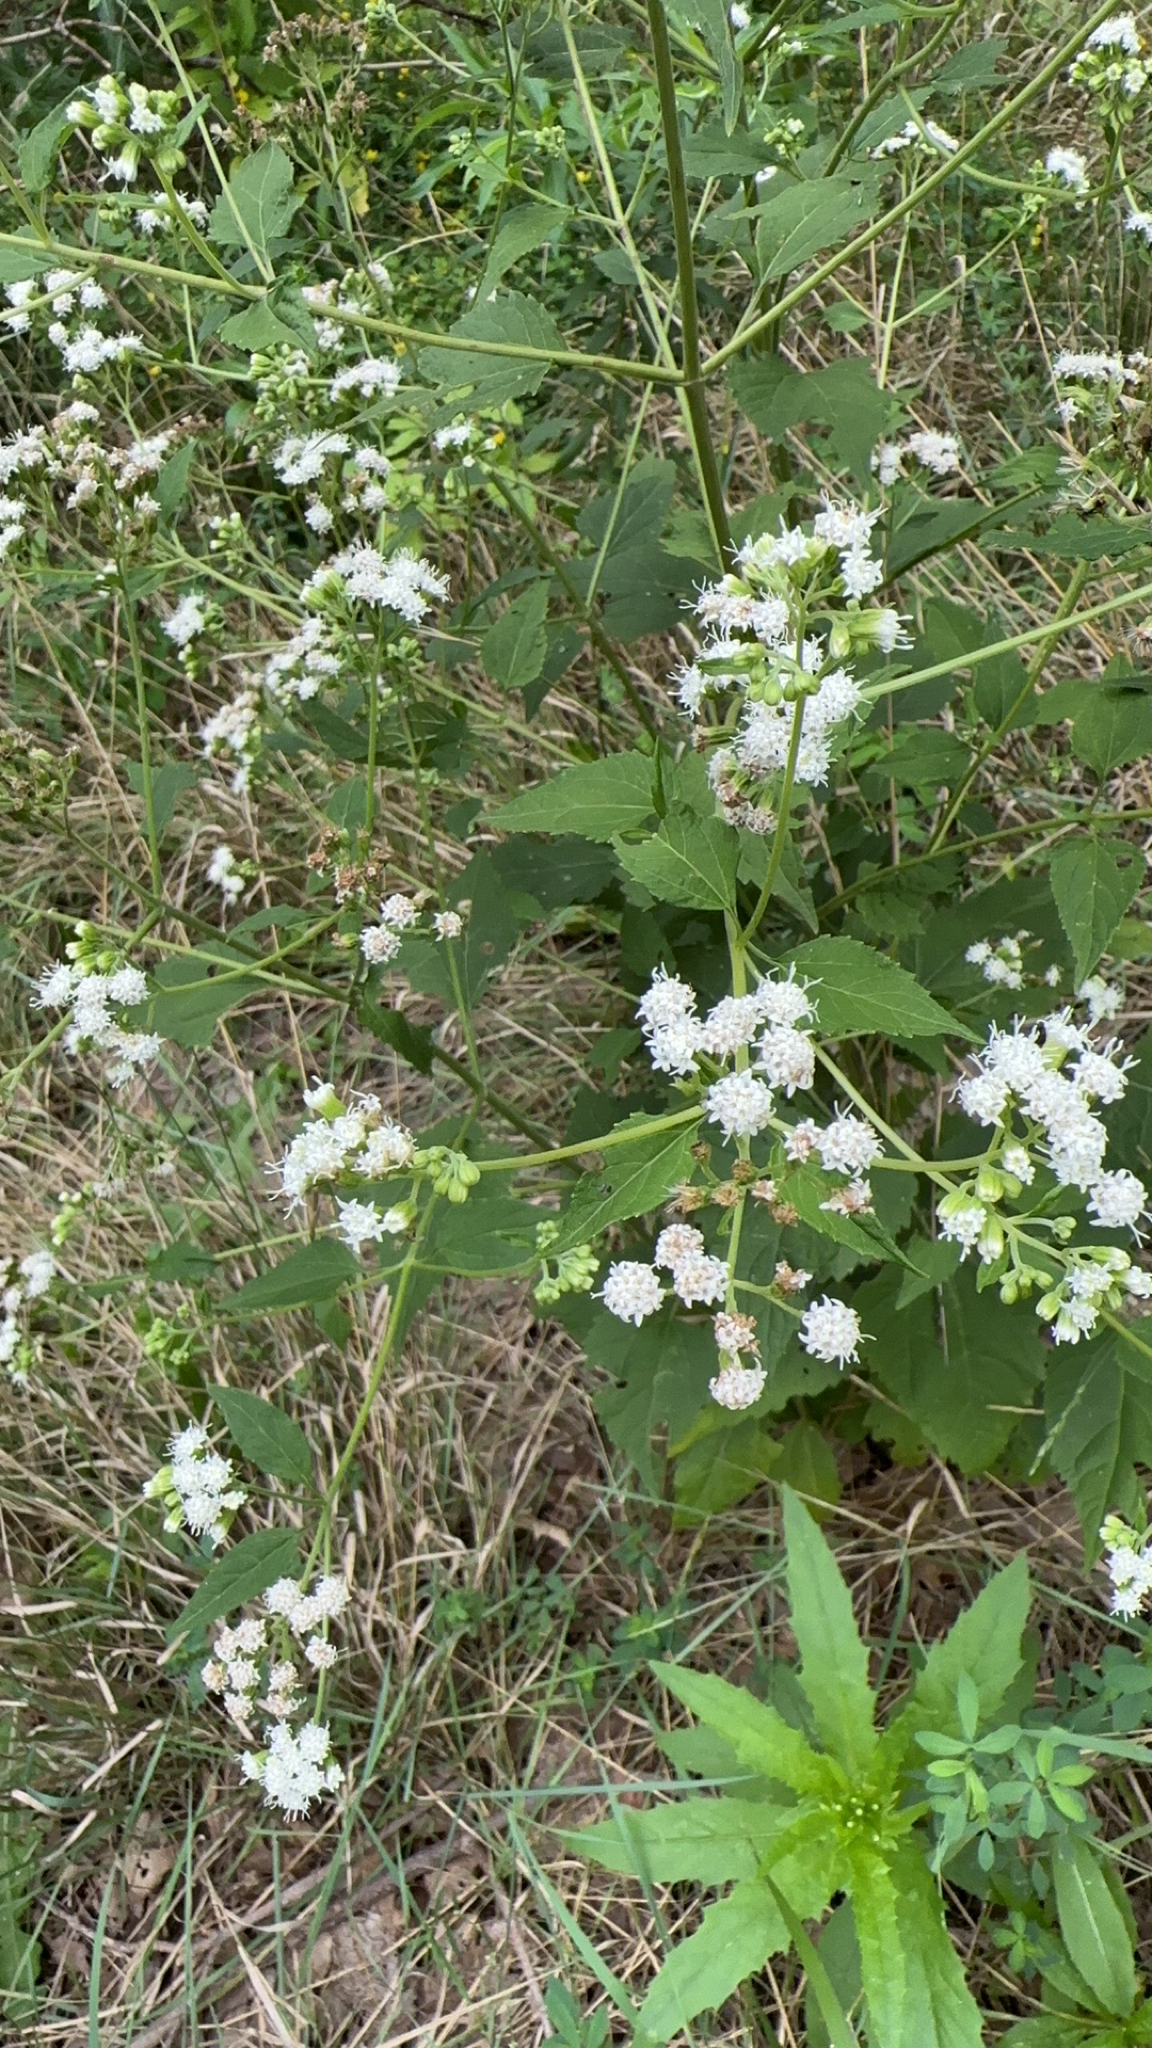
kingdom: Plantae
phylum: Tracheophyta
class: Magnoliopsida
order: Asterales
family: Asteraceae
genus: Ageratina
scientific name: Ageratina altissima
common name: White snakeroot
